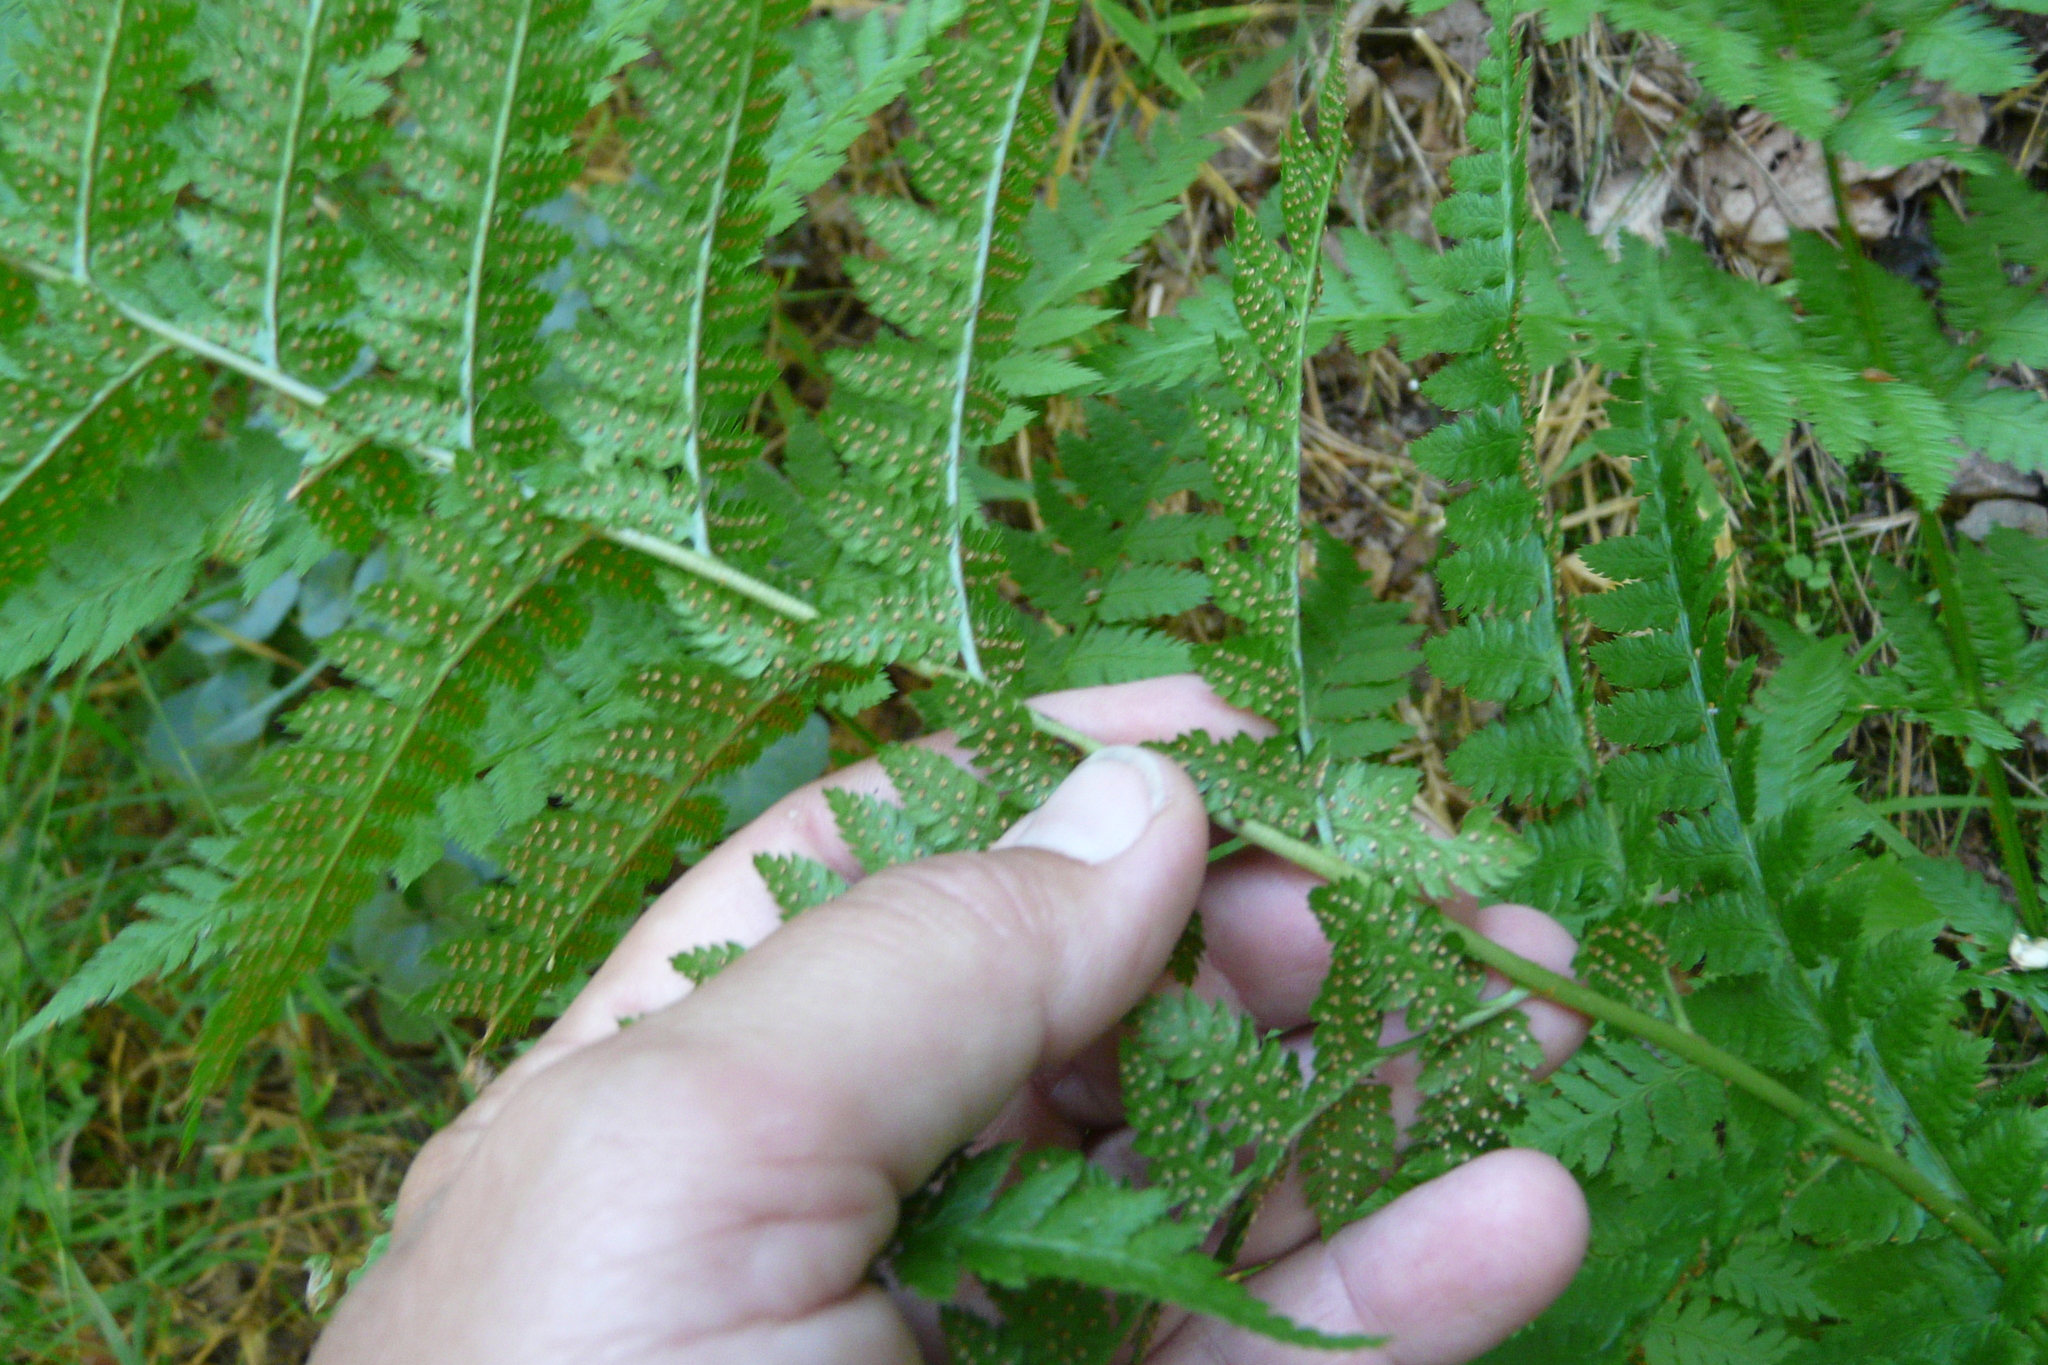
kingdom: Plantae
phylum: Tracheophyta
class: Polypodiopsida
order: Polypodiales
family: Dryopteridaceae
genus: Dryopteris
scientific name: Dryopteris carthusiana
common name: Narrow buckler-fern
